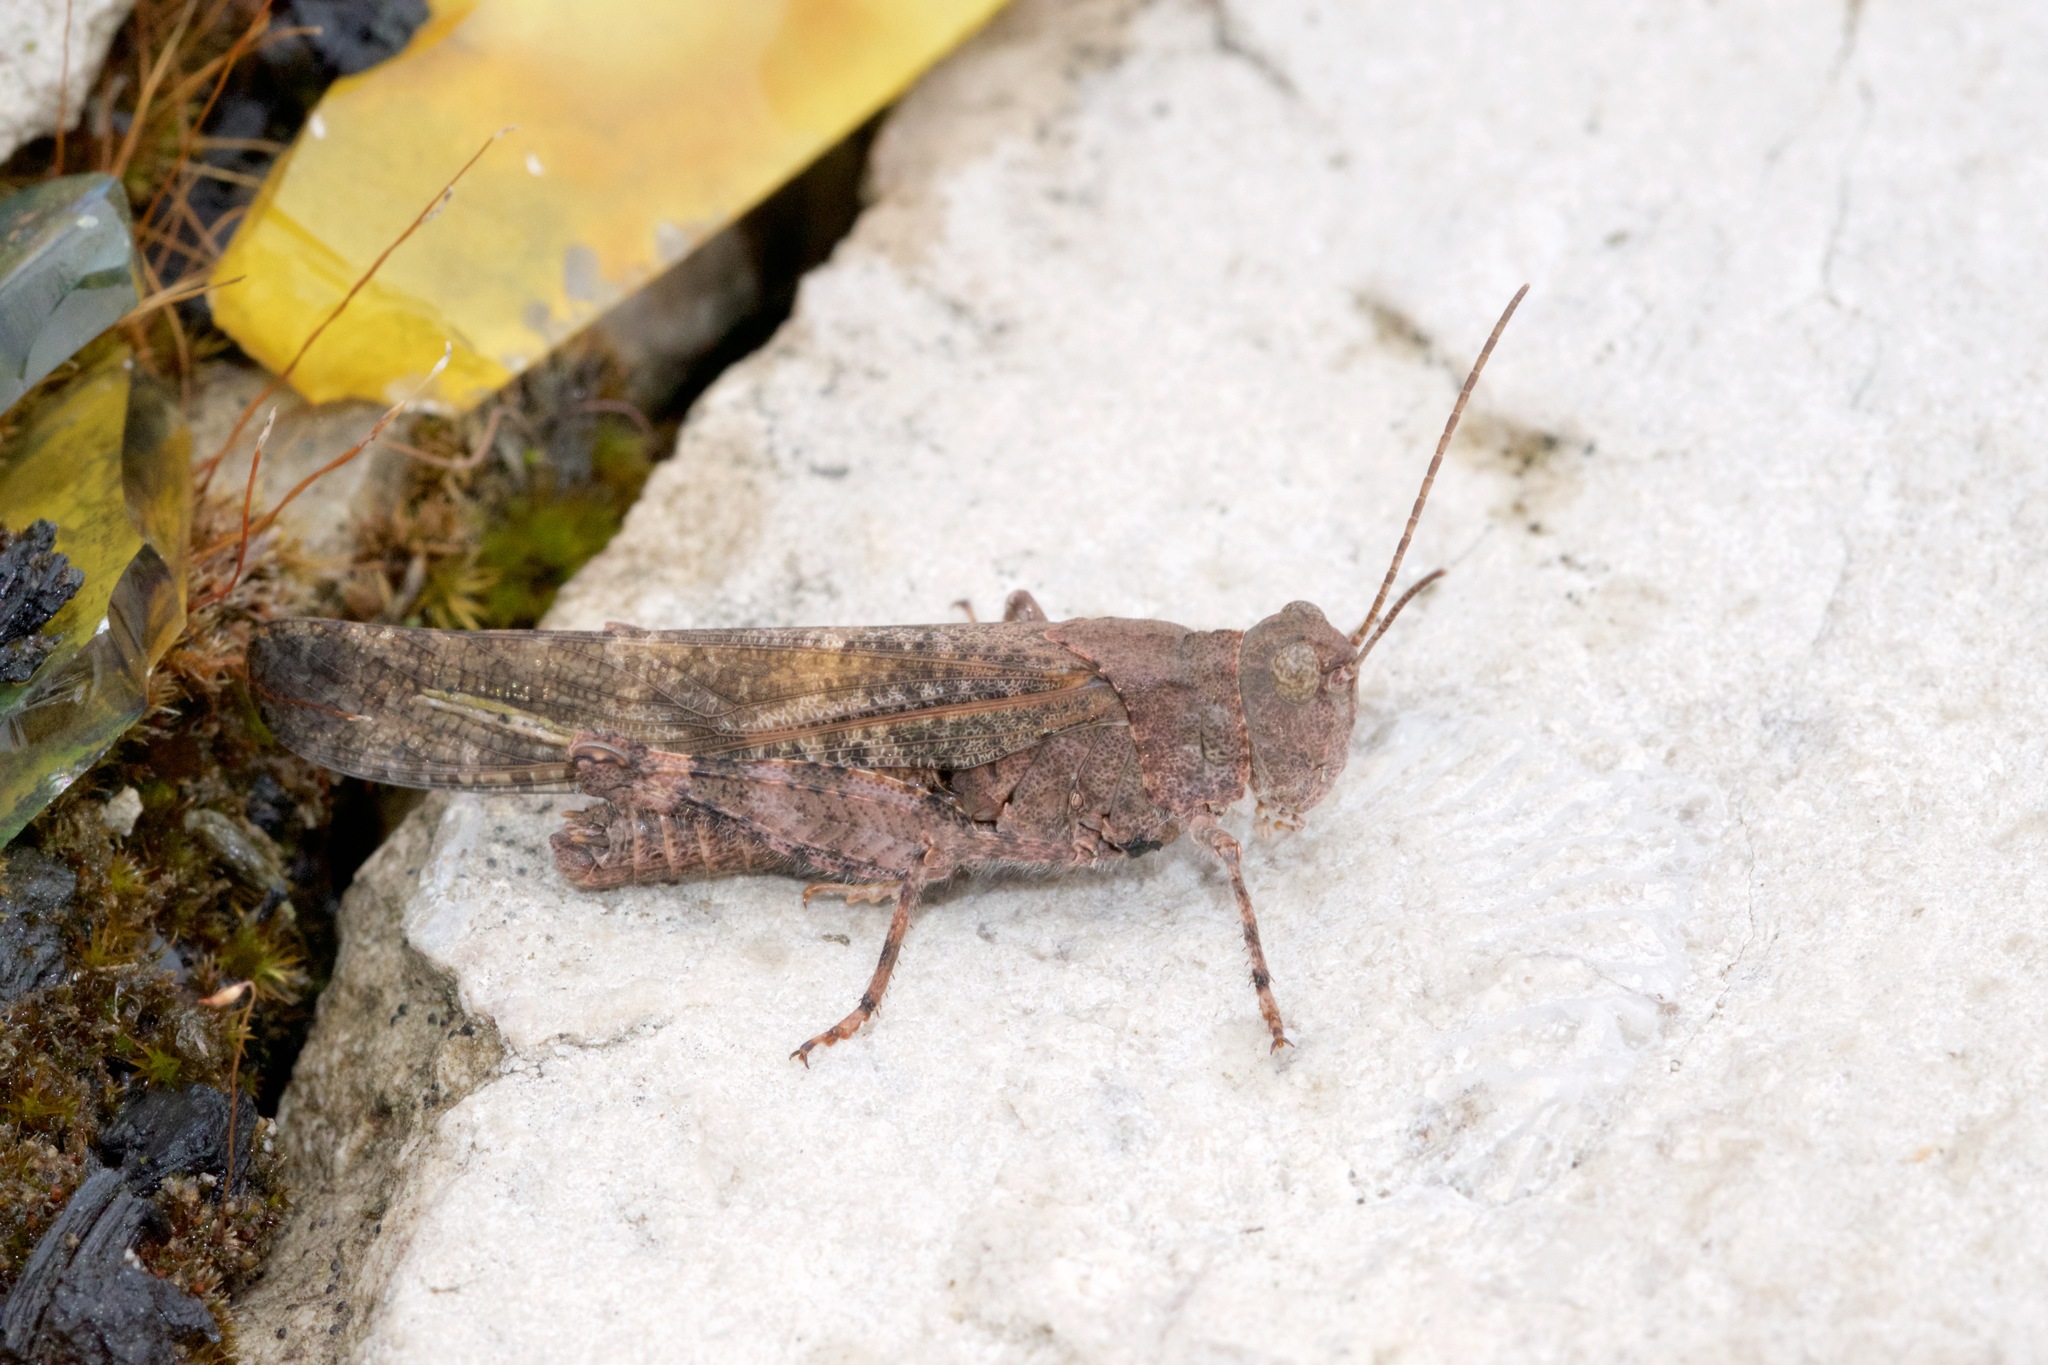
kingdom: Animalia
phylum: Arthropoda
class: Insecta
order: Orthoptera
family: Acrididae
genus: Dissosteira
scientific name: Dissosteira carolina
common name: Carolina grasshopper
